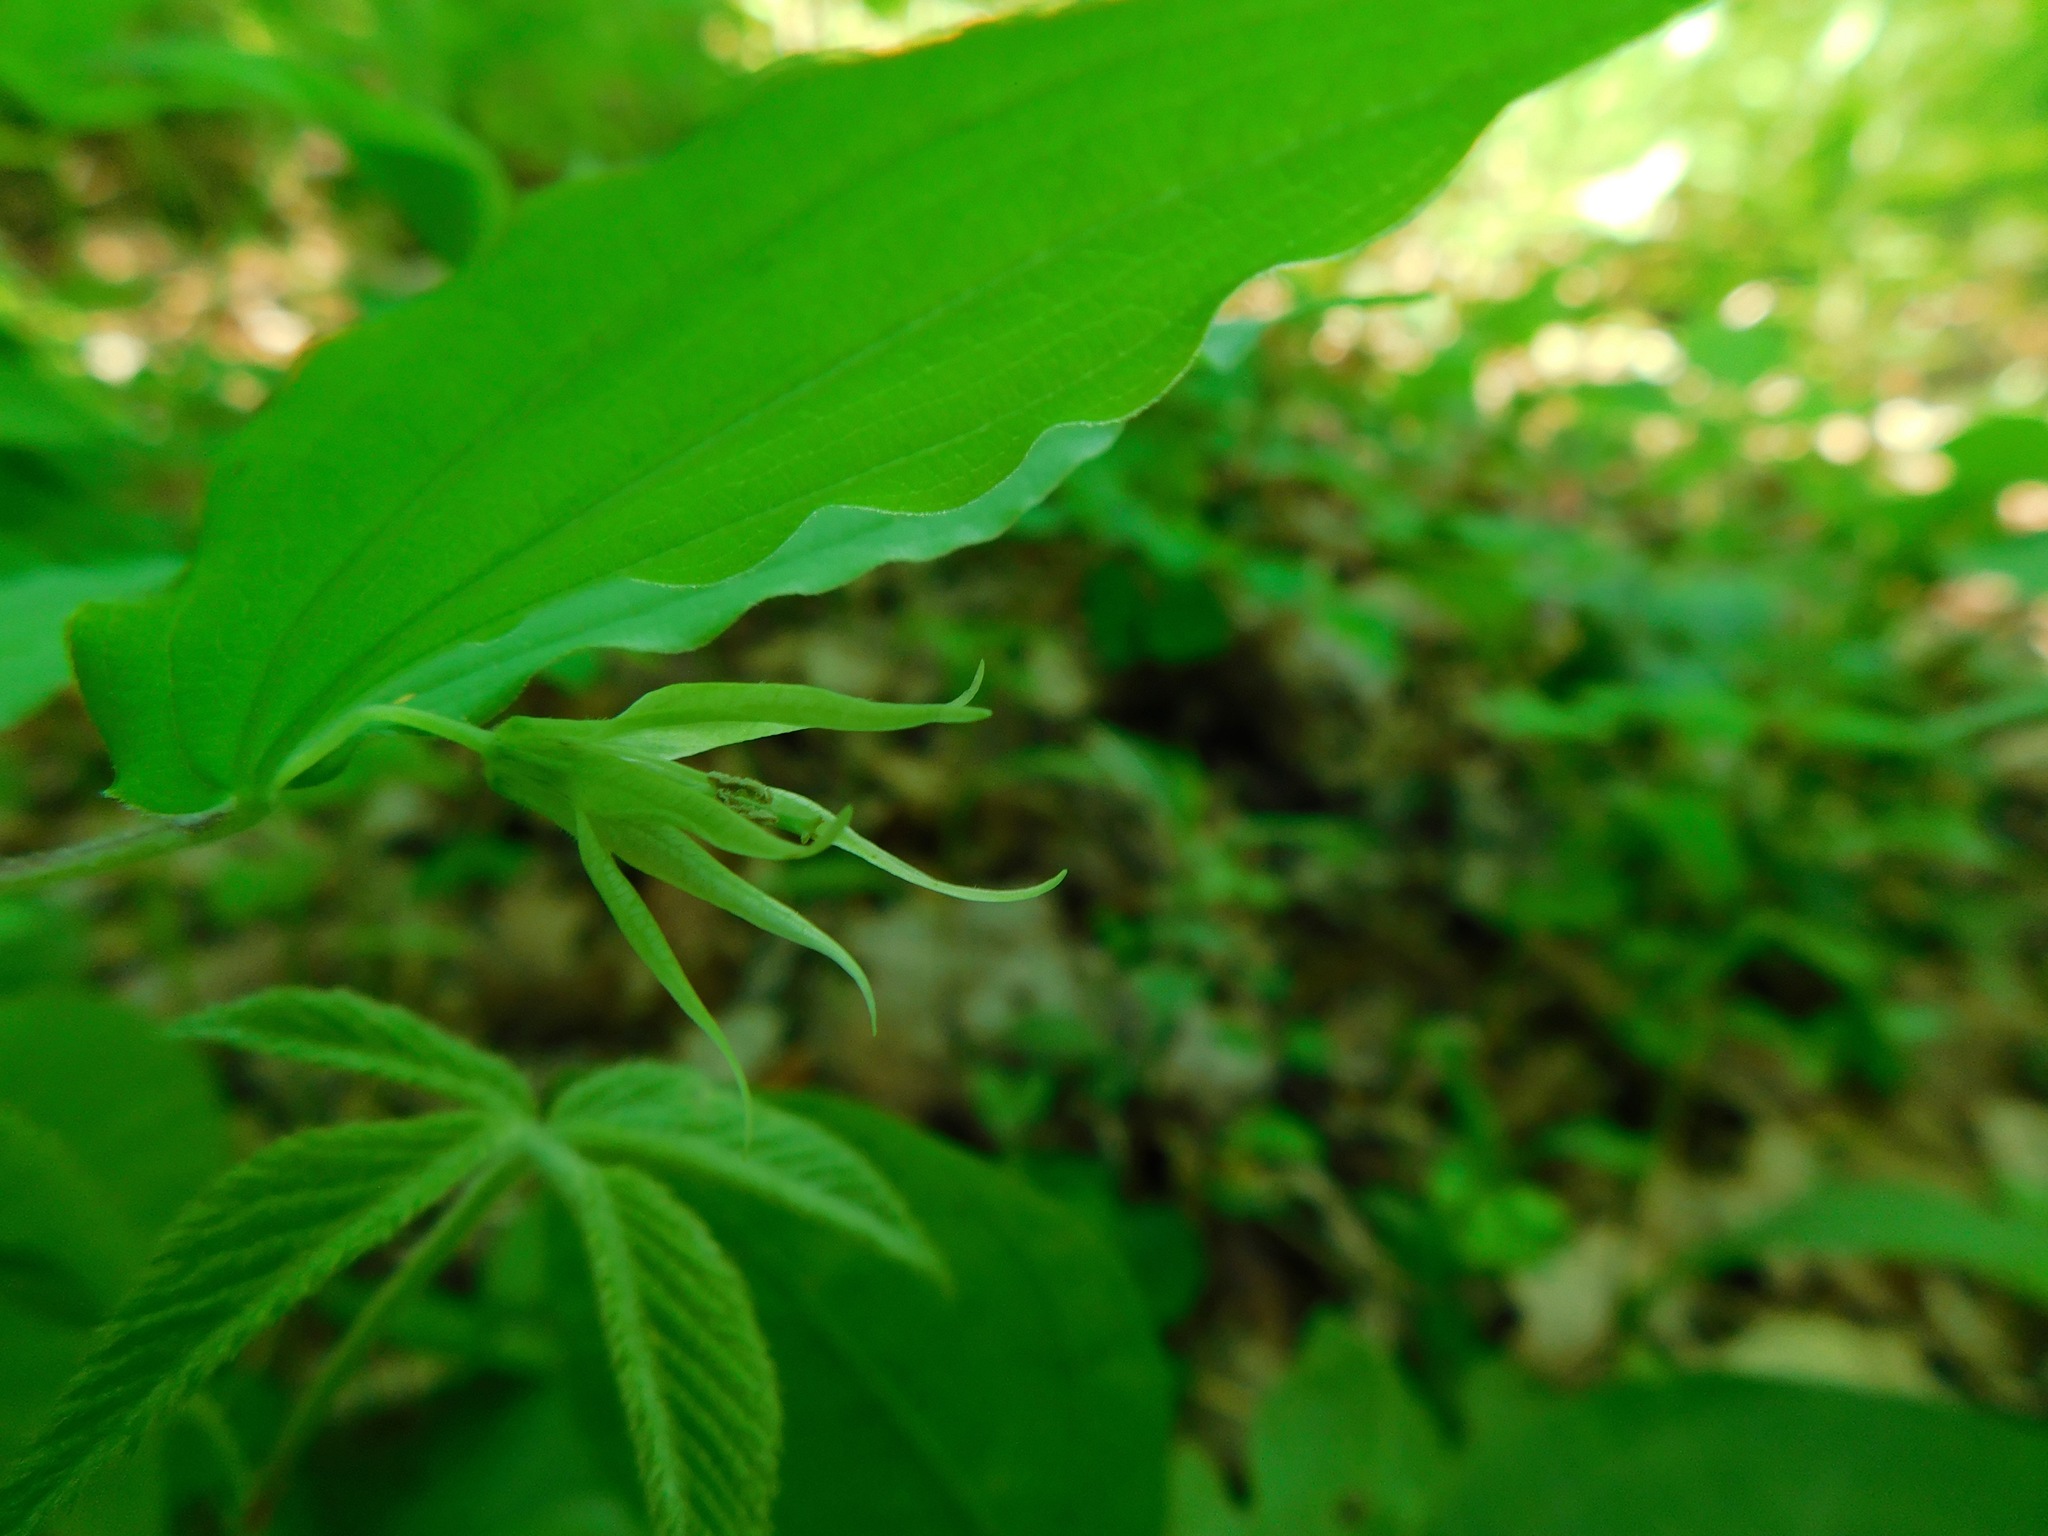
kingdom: Plantae
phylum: Tracheophyta
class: Liliopsida
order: Liliales
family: Liliaceae
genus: Prosartes
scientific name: Prosartes lanuginosa
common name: Hairy mandarin
